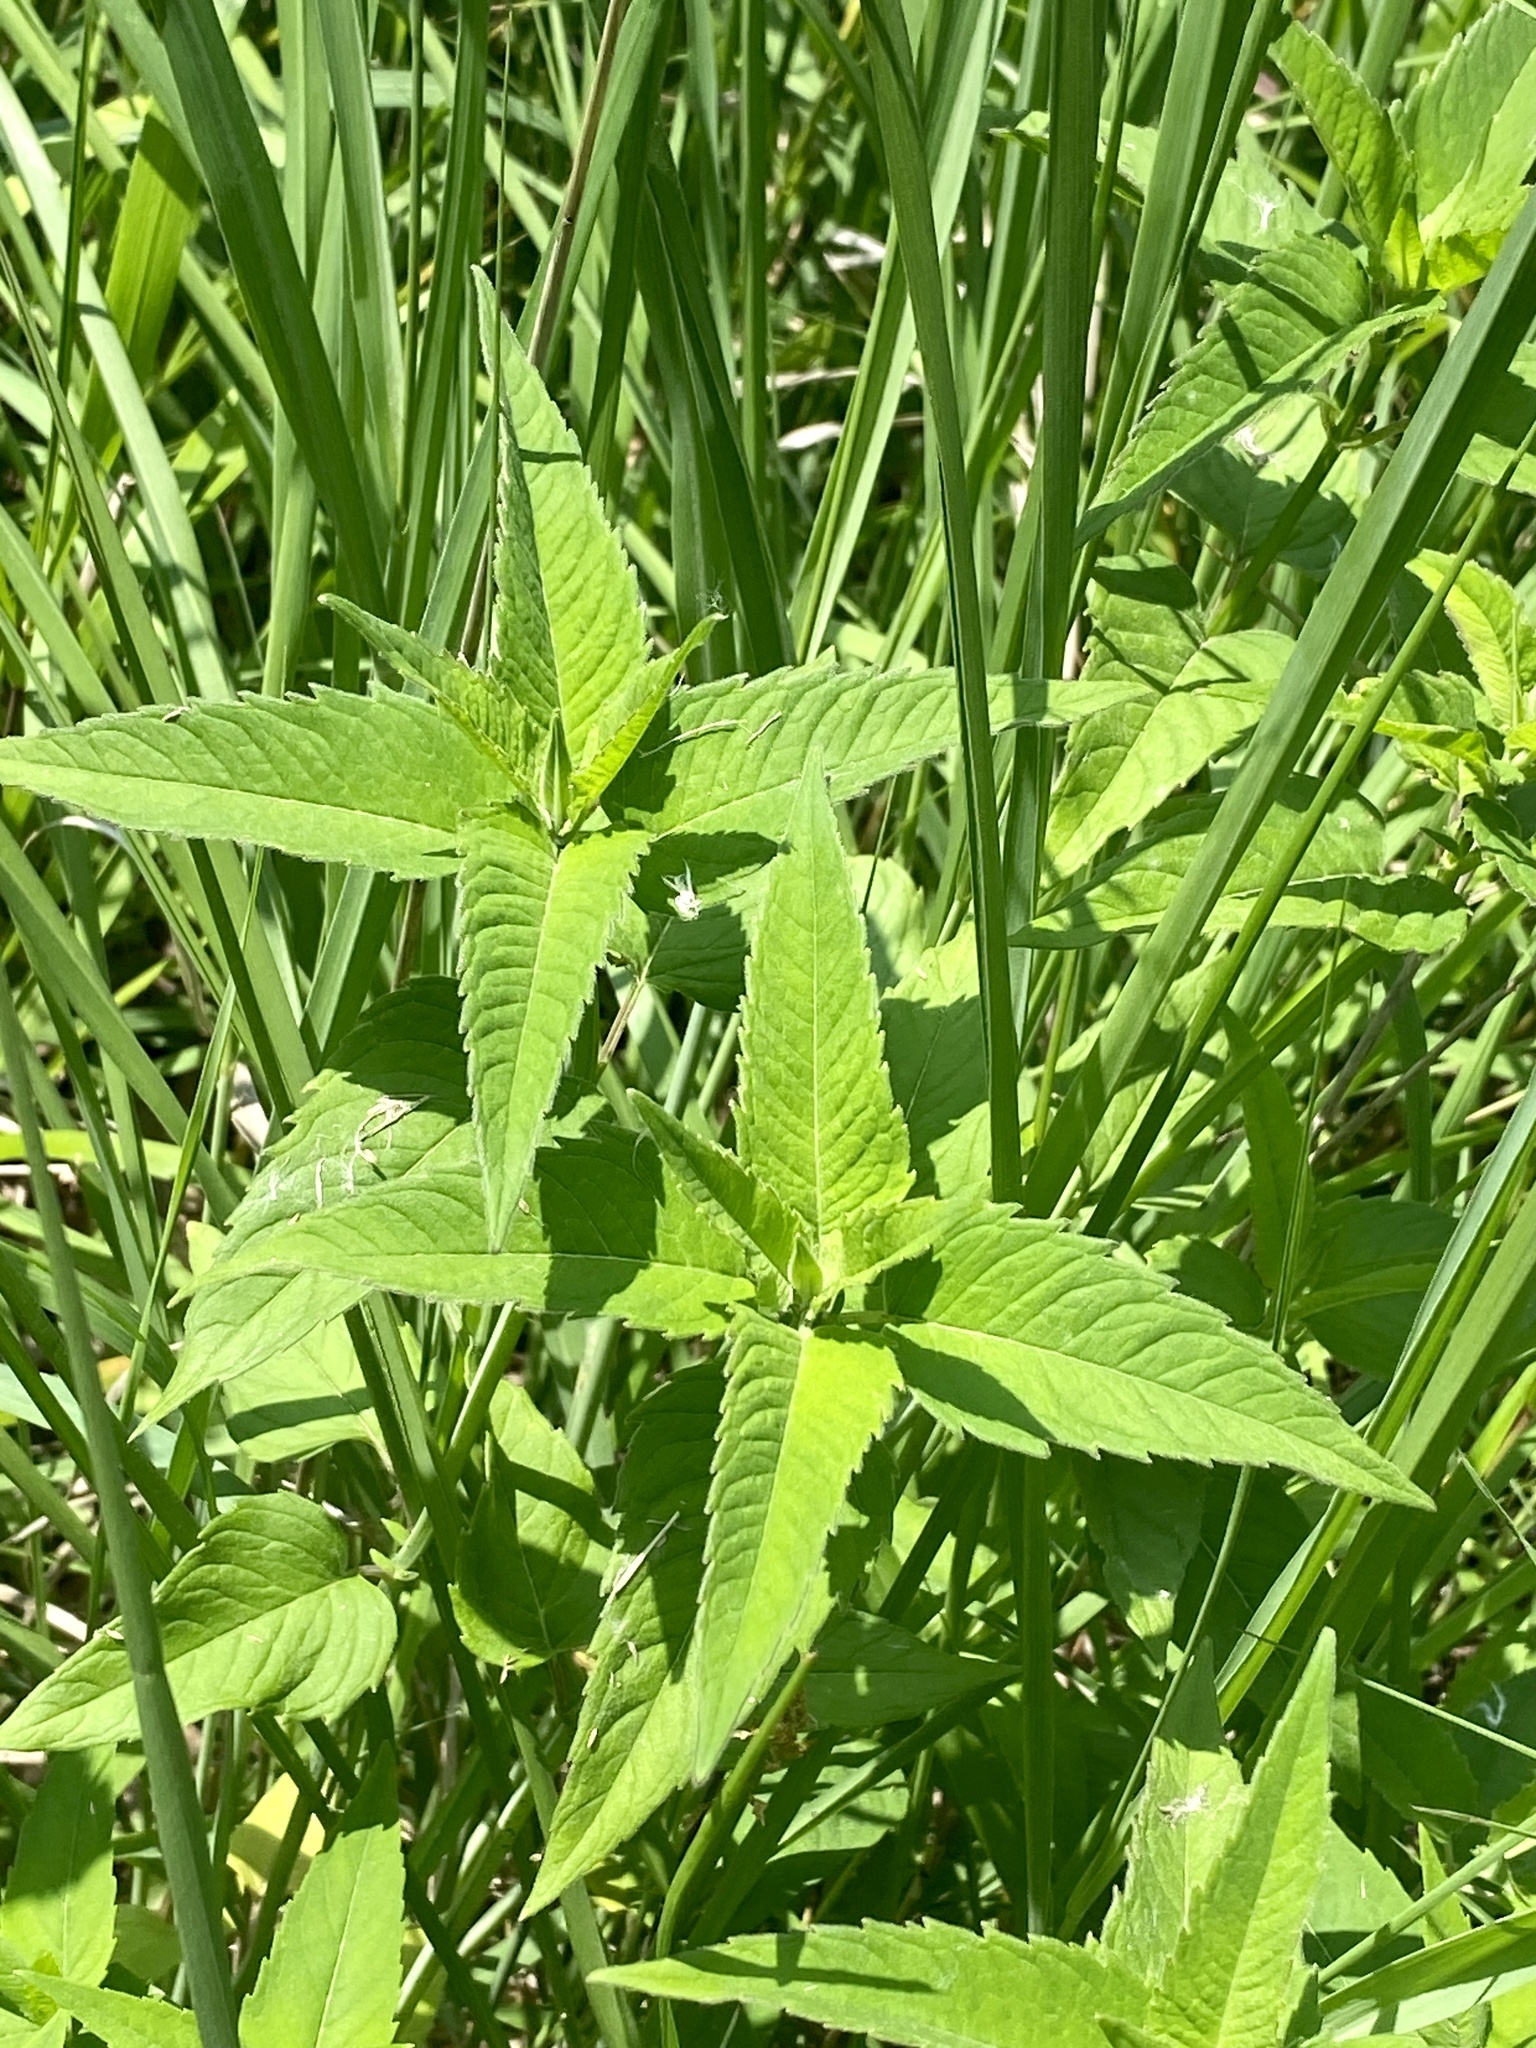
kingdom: Plantae
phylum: Tracheophyta
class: Magnoliopsida
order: Lamiales
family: Lamiaceae
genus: Monarda
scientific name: Monarda fistulosa
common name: Purple beebalm
